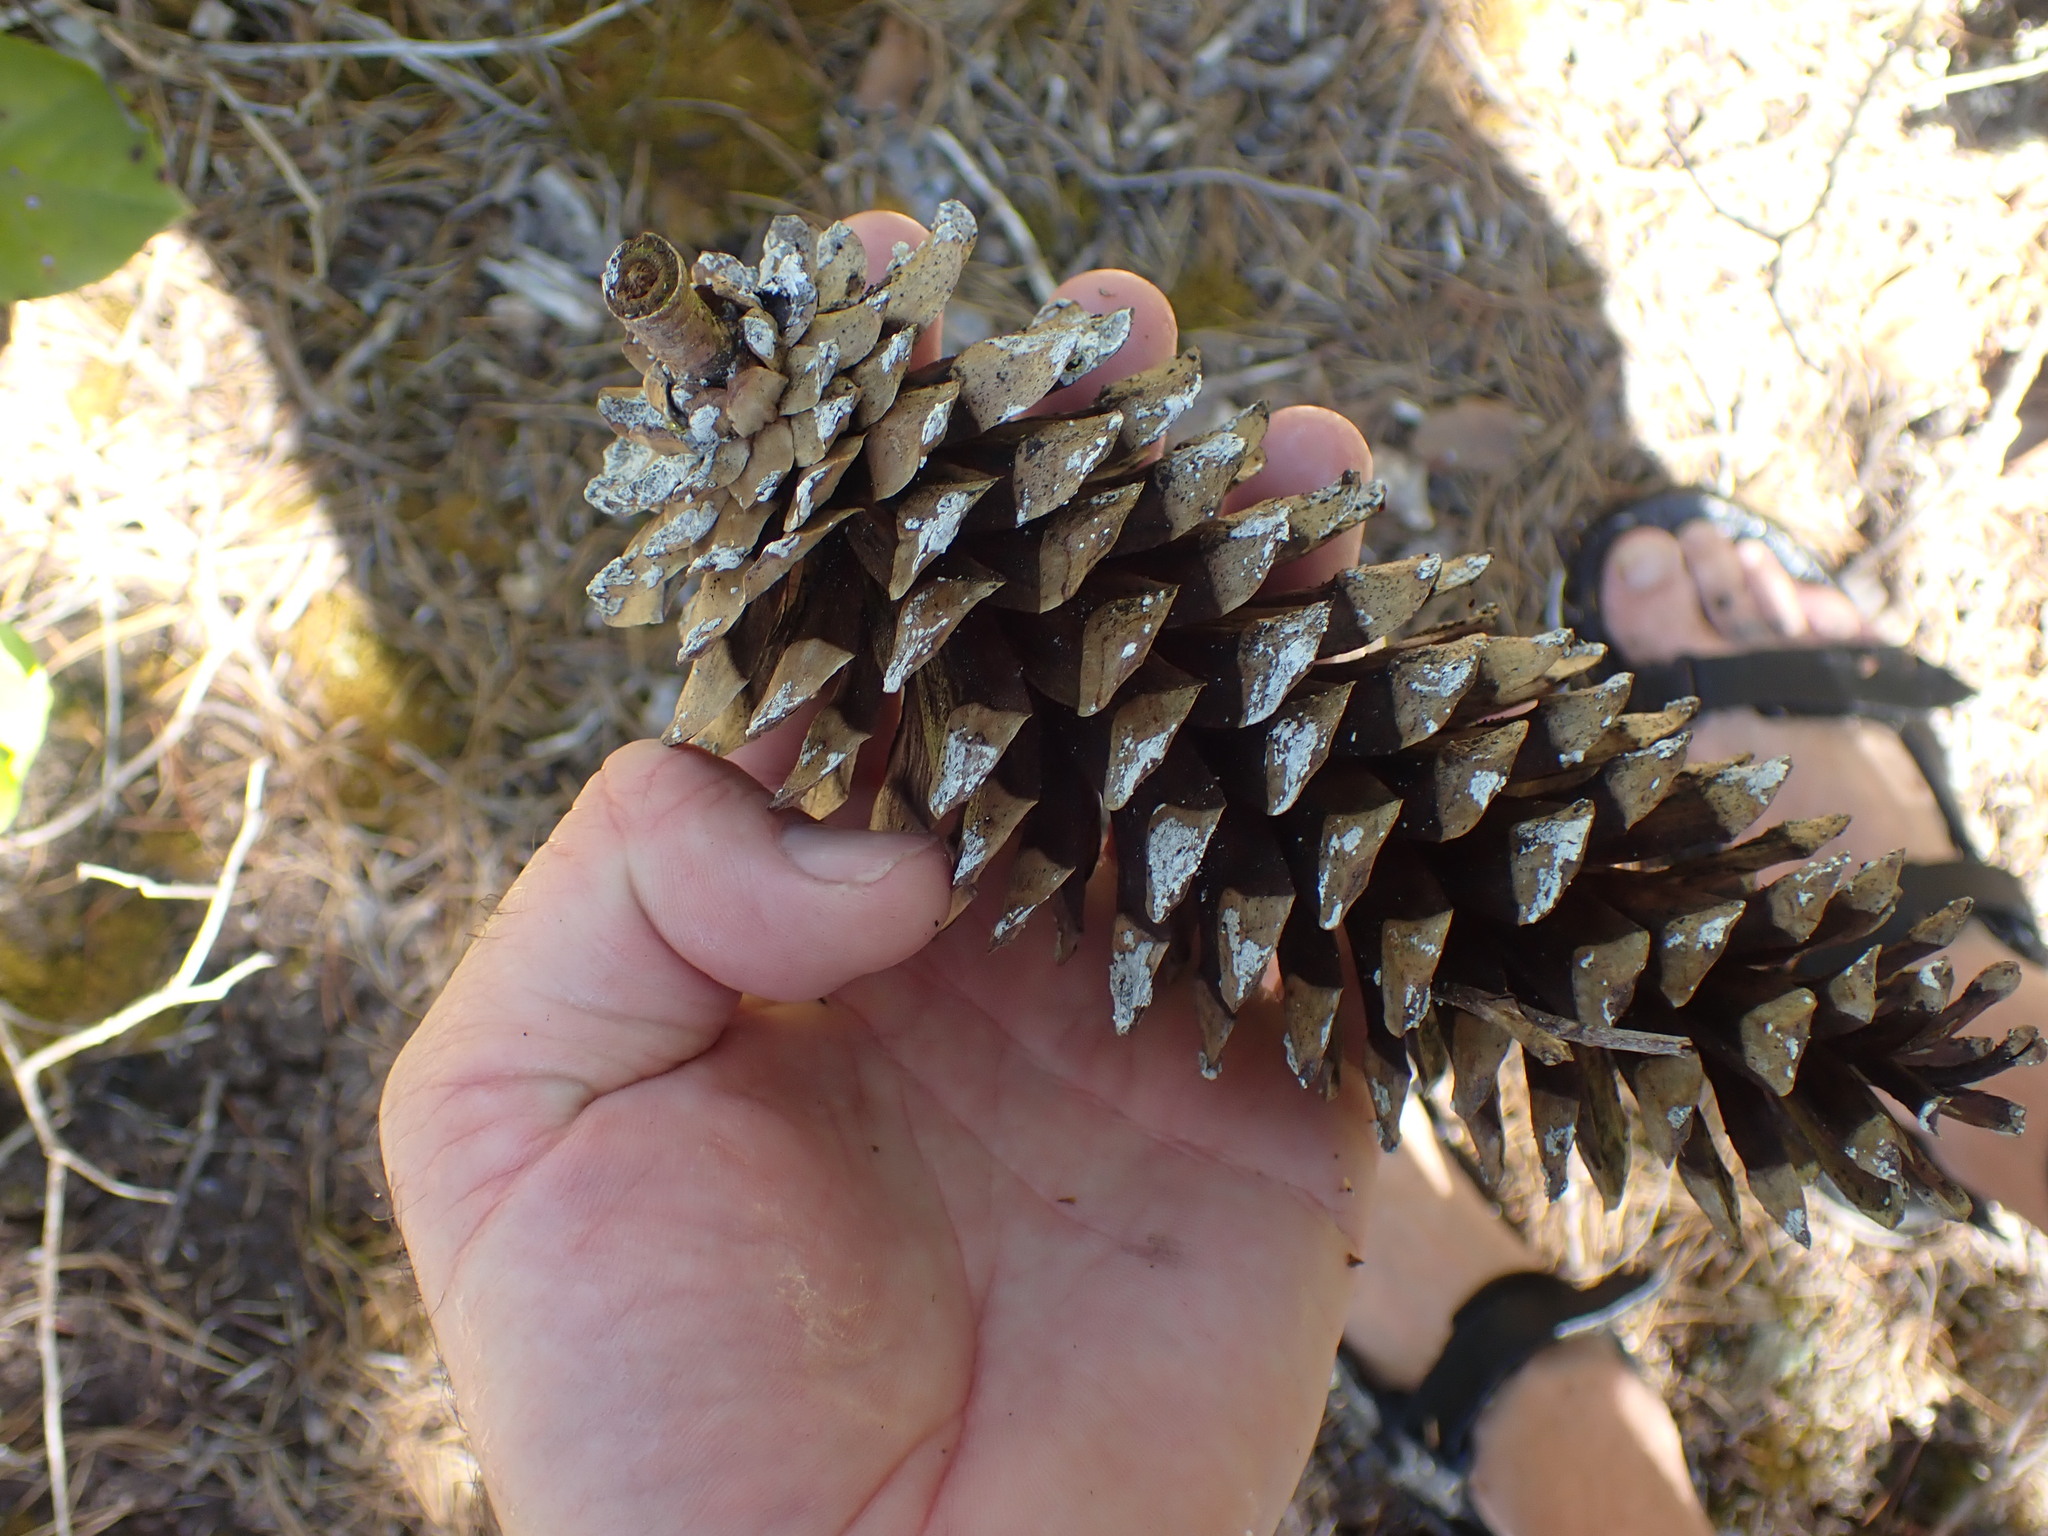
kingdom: Plantae
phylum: Tracheophyta
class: Pinopsida
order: Pinales
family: Pinaceae
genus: Pinus
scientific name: Pinus monticola
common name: Western white pine
